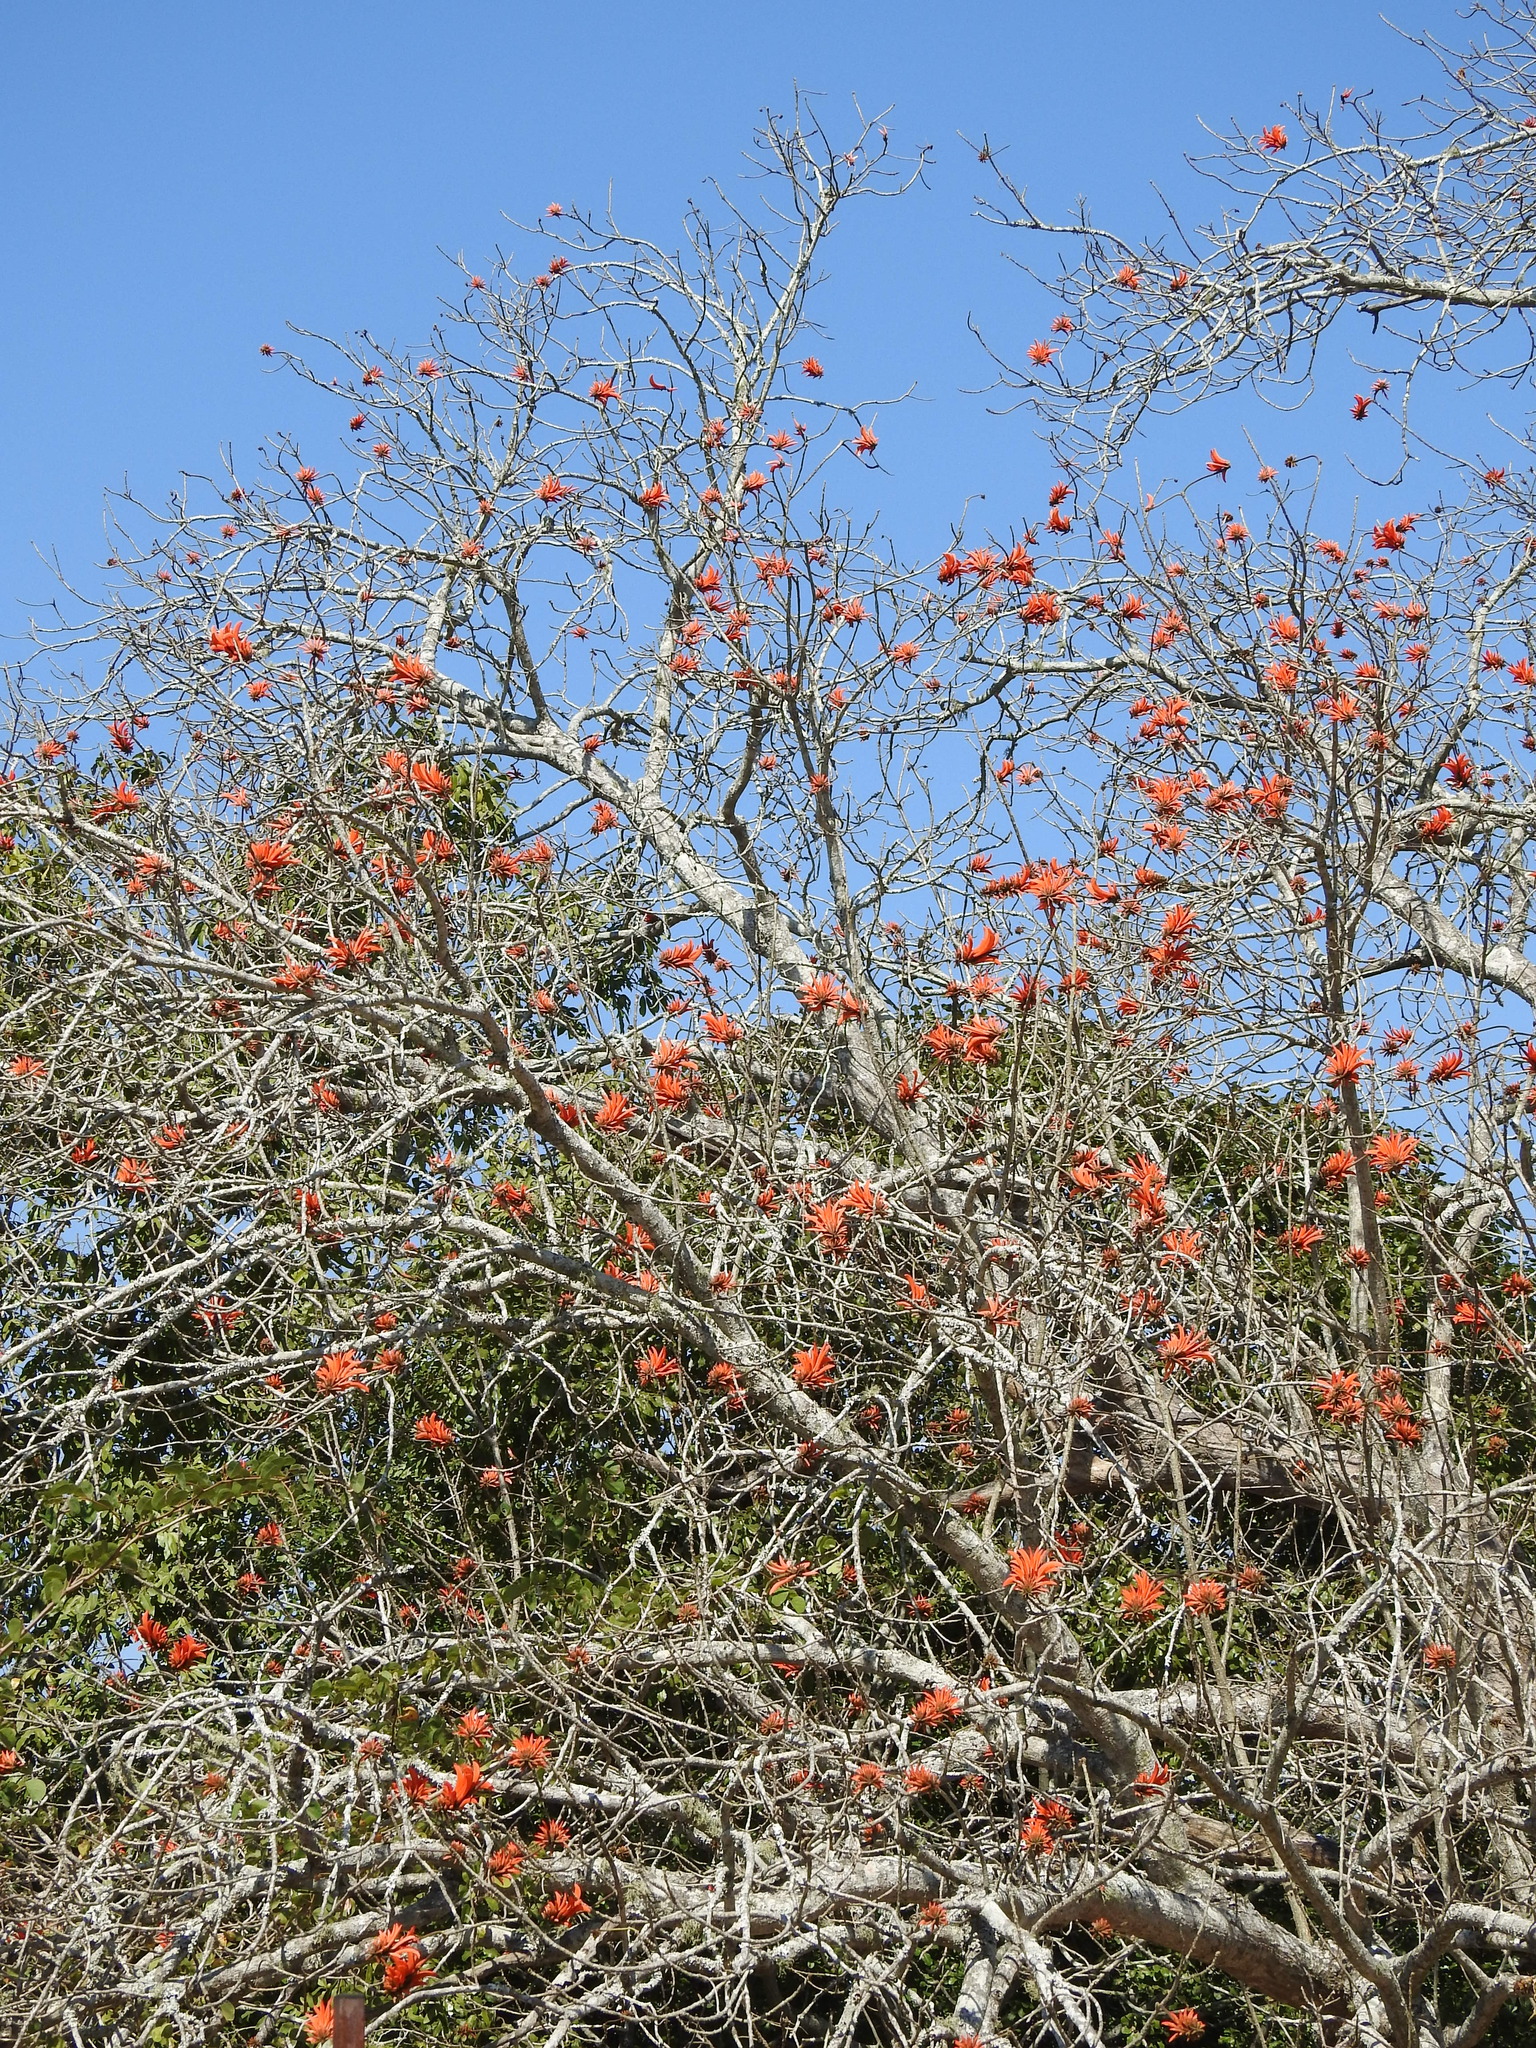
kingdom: Plantae
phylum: Tracheophyta
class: Magnoliopsida
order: Fabales
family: Fabaceae
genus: Erythrina
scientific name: Erythrina lysistemon
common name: Common coral tree
